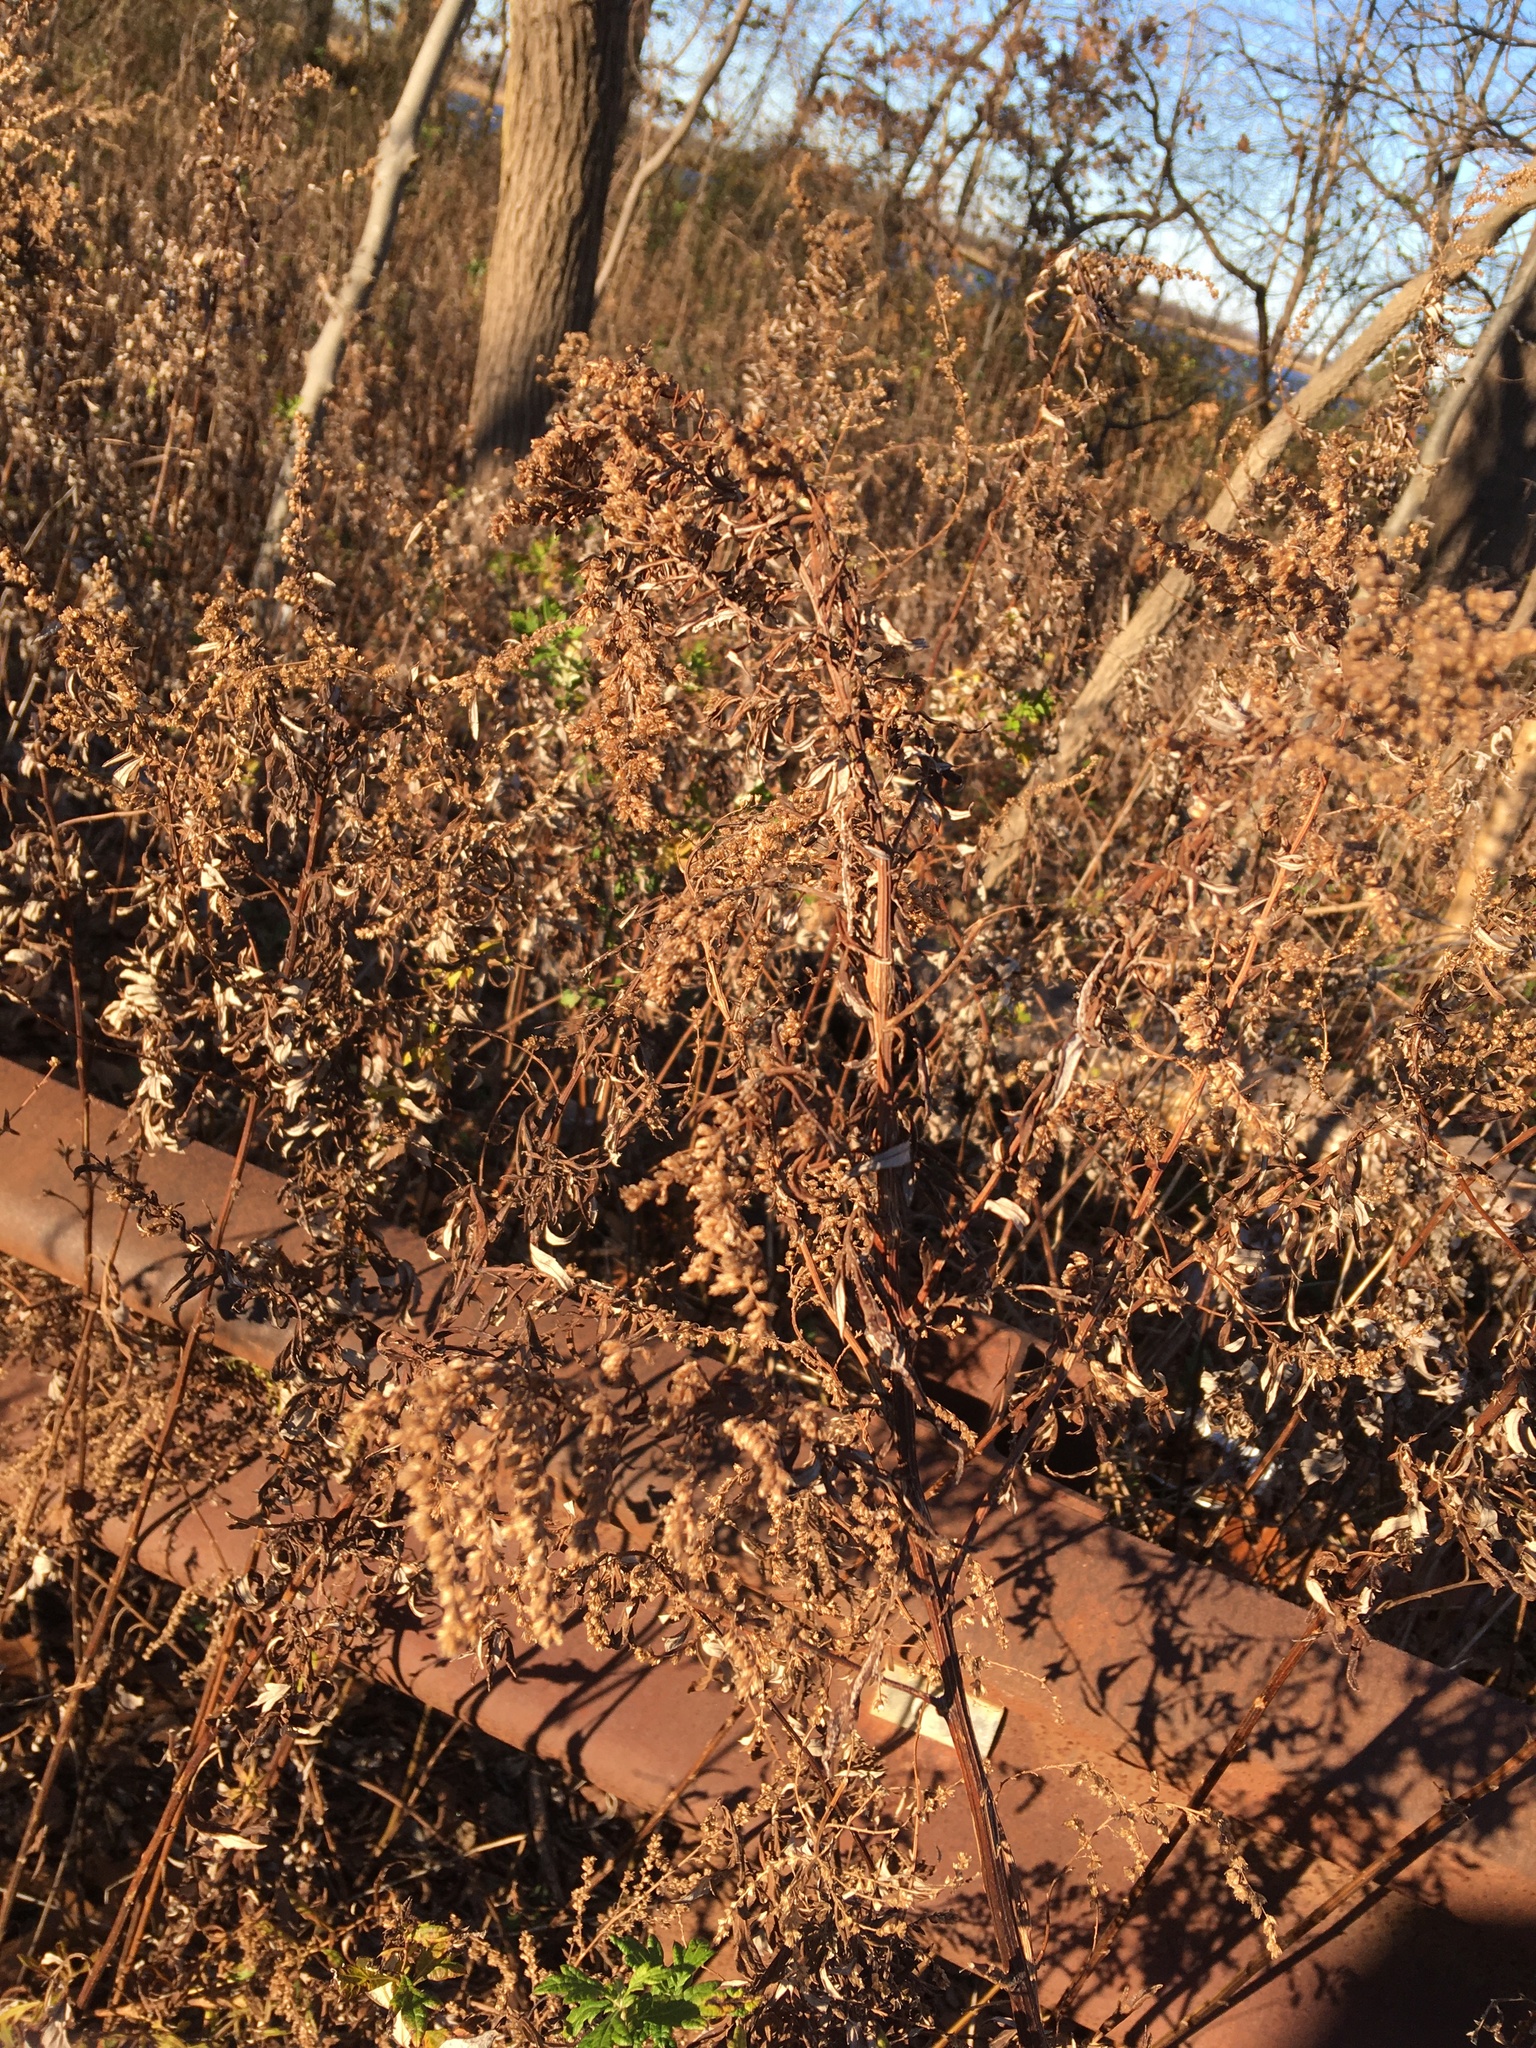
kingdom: Plantae
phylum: Tracheophyta
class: Magnoliopsida
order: Asterales
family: Asteraceae
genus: Artemisia
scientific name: Artemisia vulgaris
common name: Mugwort
